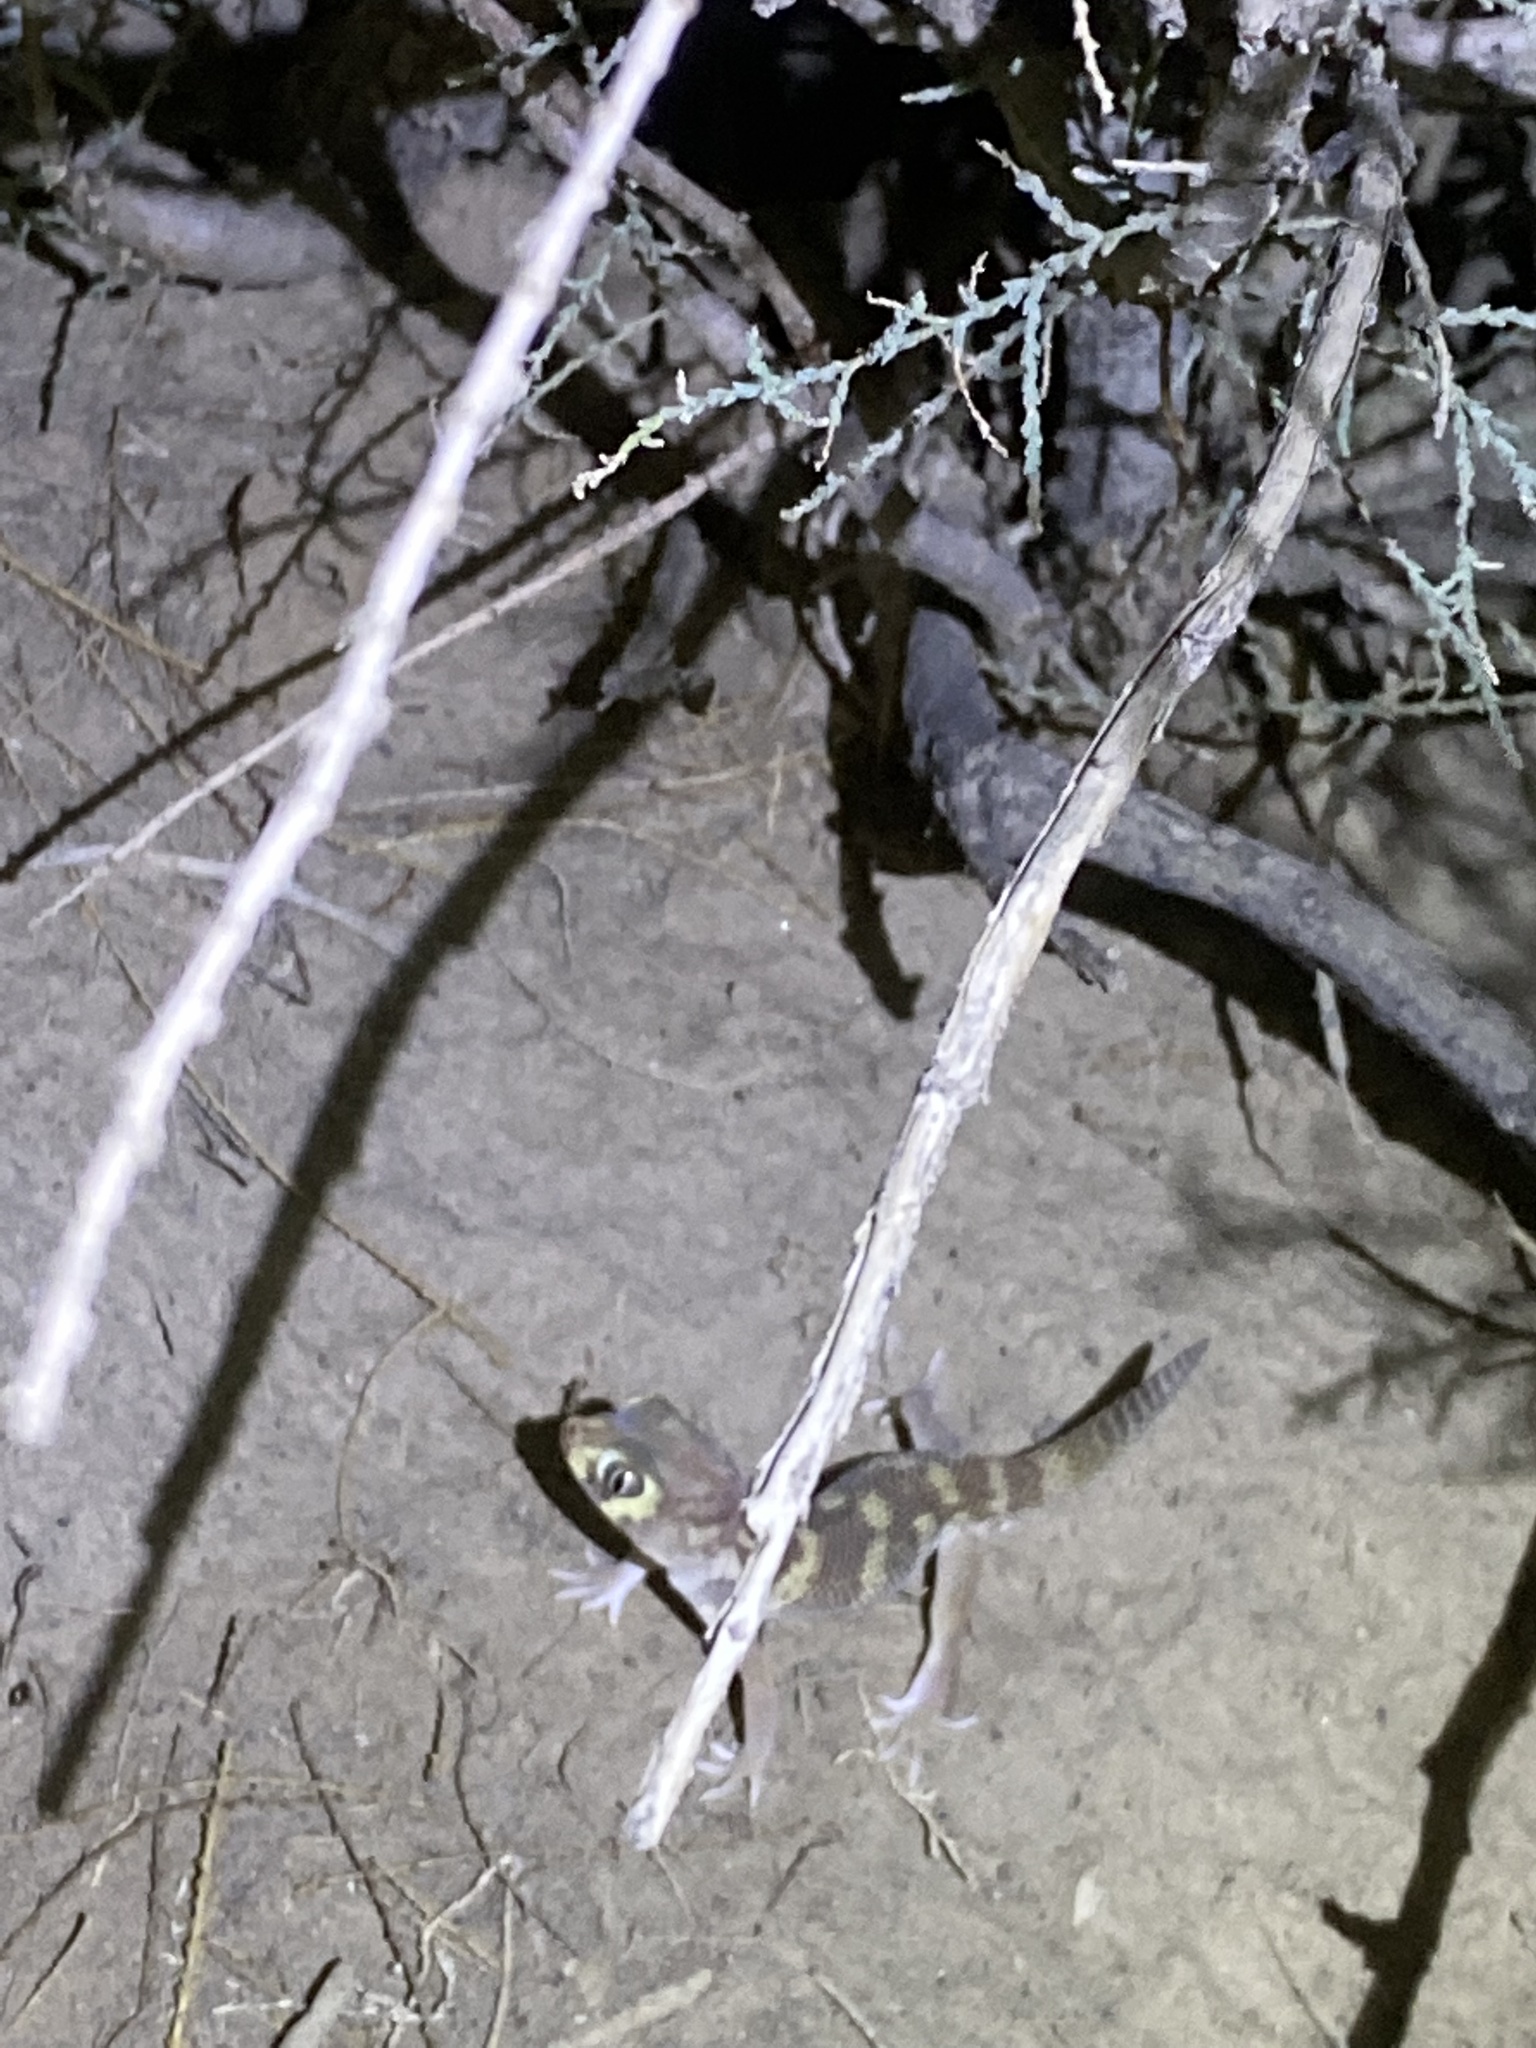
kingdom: Animalia
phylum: Chordata
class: Squamata
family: Sphaerodactylidae
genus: Teratoscincus
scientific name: Teratoscincus bedriagai
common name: Bedriaga's plate-tailed gecko
